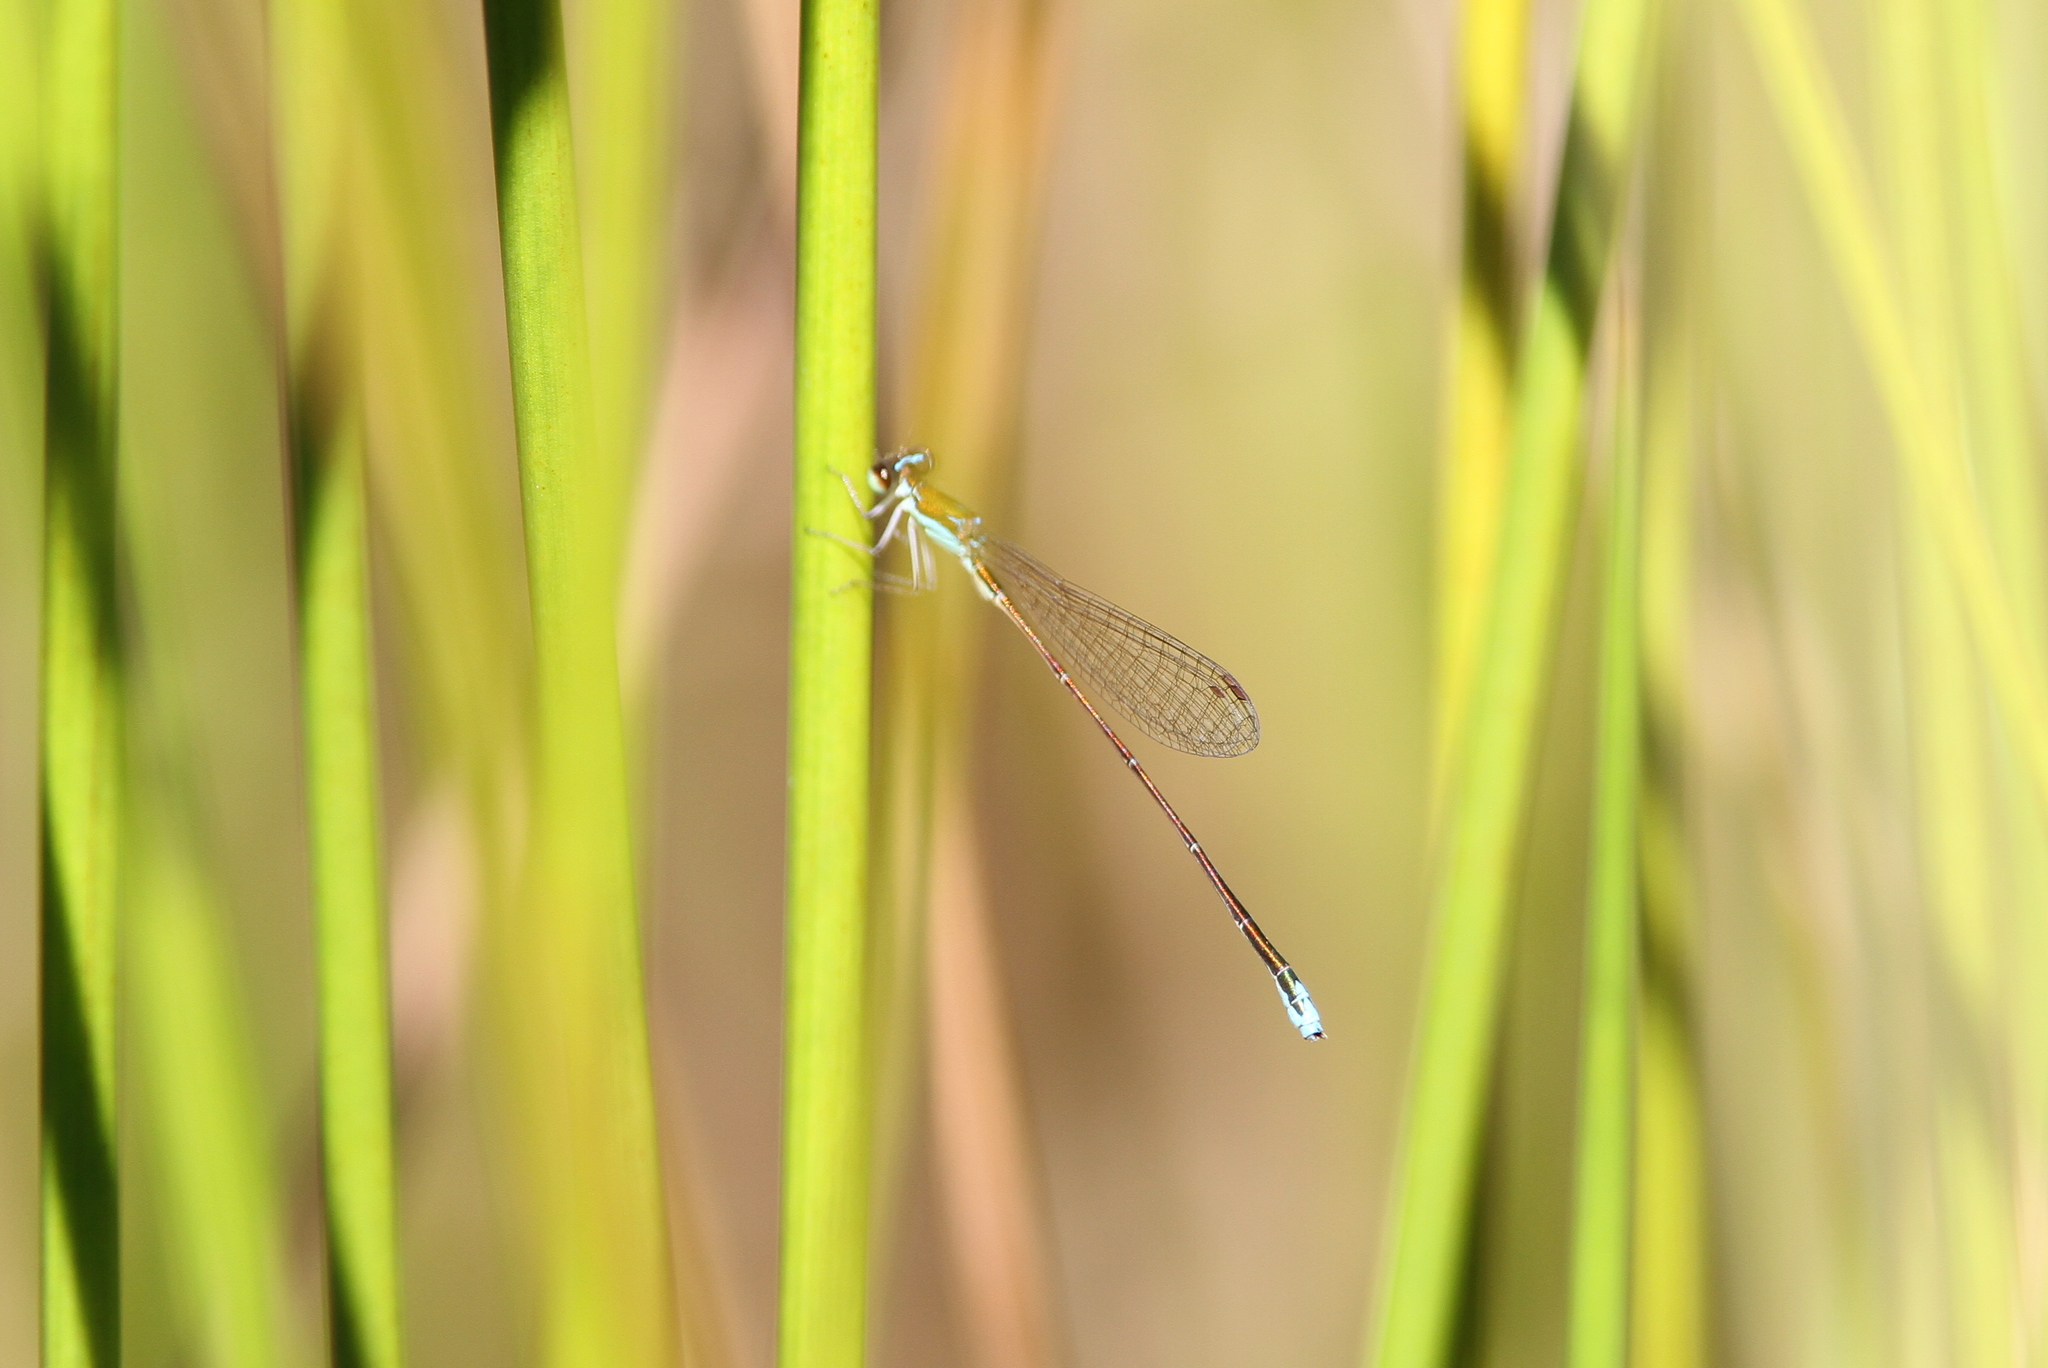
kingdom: Animalia
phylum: Arthropoda
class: Insecta
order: Odonata
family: Coenagrionidae
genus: Nehalennia
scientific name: Nehalennia speciosa
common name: Sedgling
